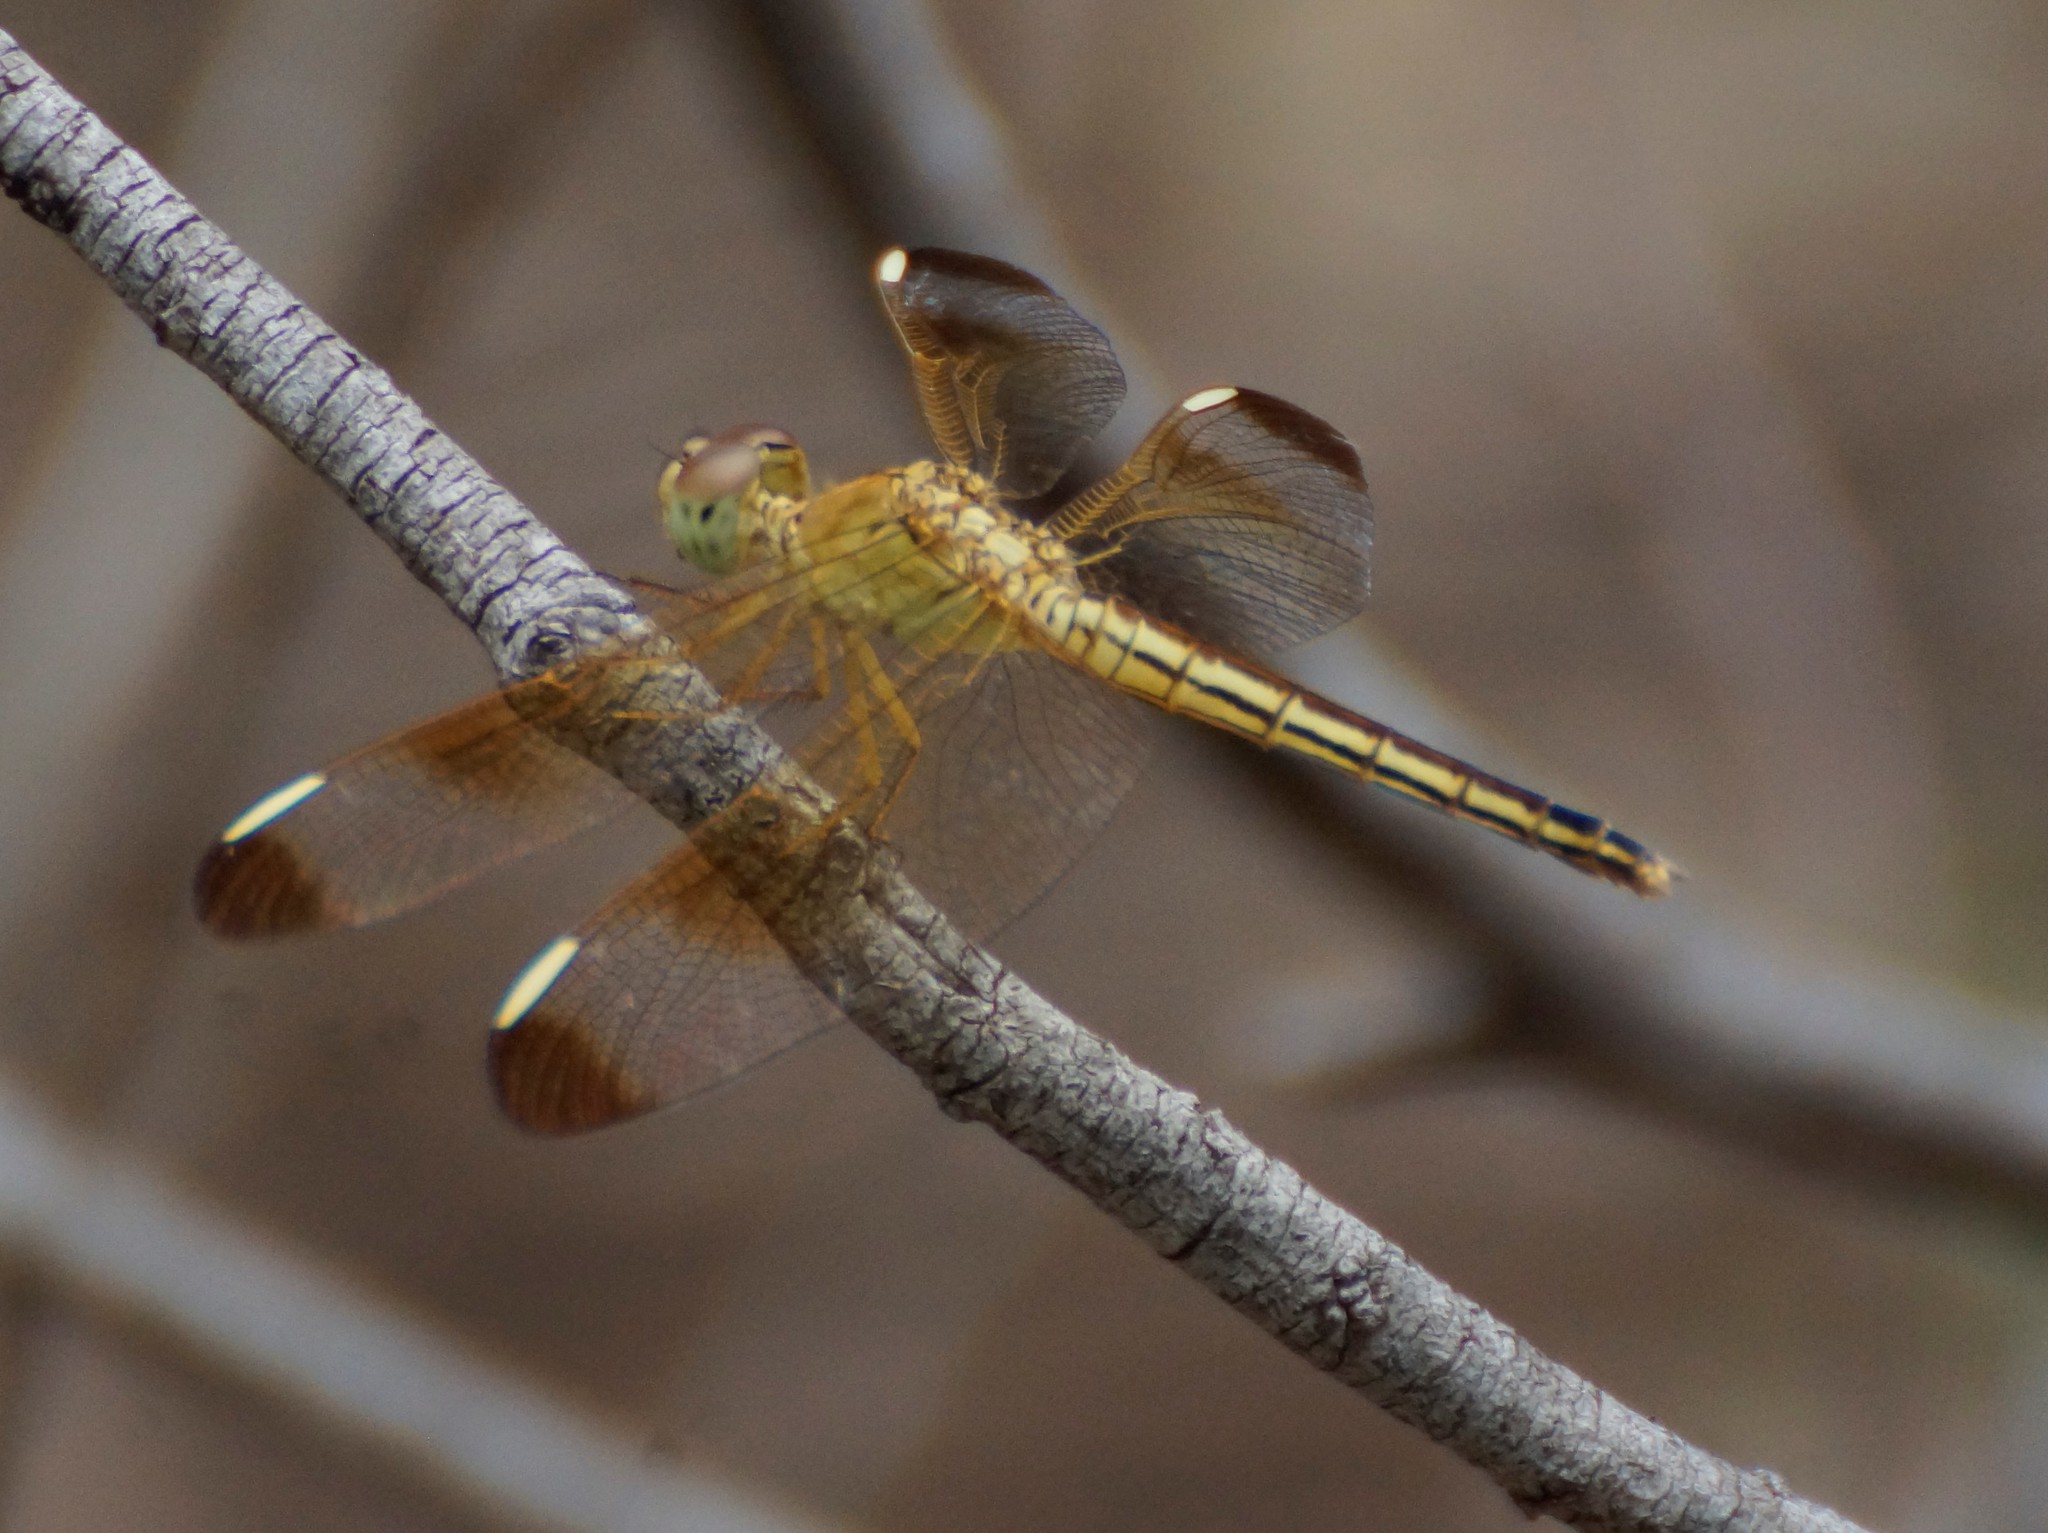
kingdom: Animalia
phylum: Arthropoda
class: Insecta
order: Odonata
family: Libellulidae
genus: Neurothemis
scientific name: Neurothemis stigmatizans
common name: Painted grasshawk
